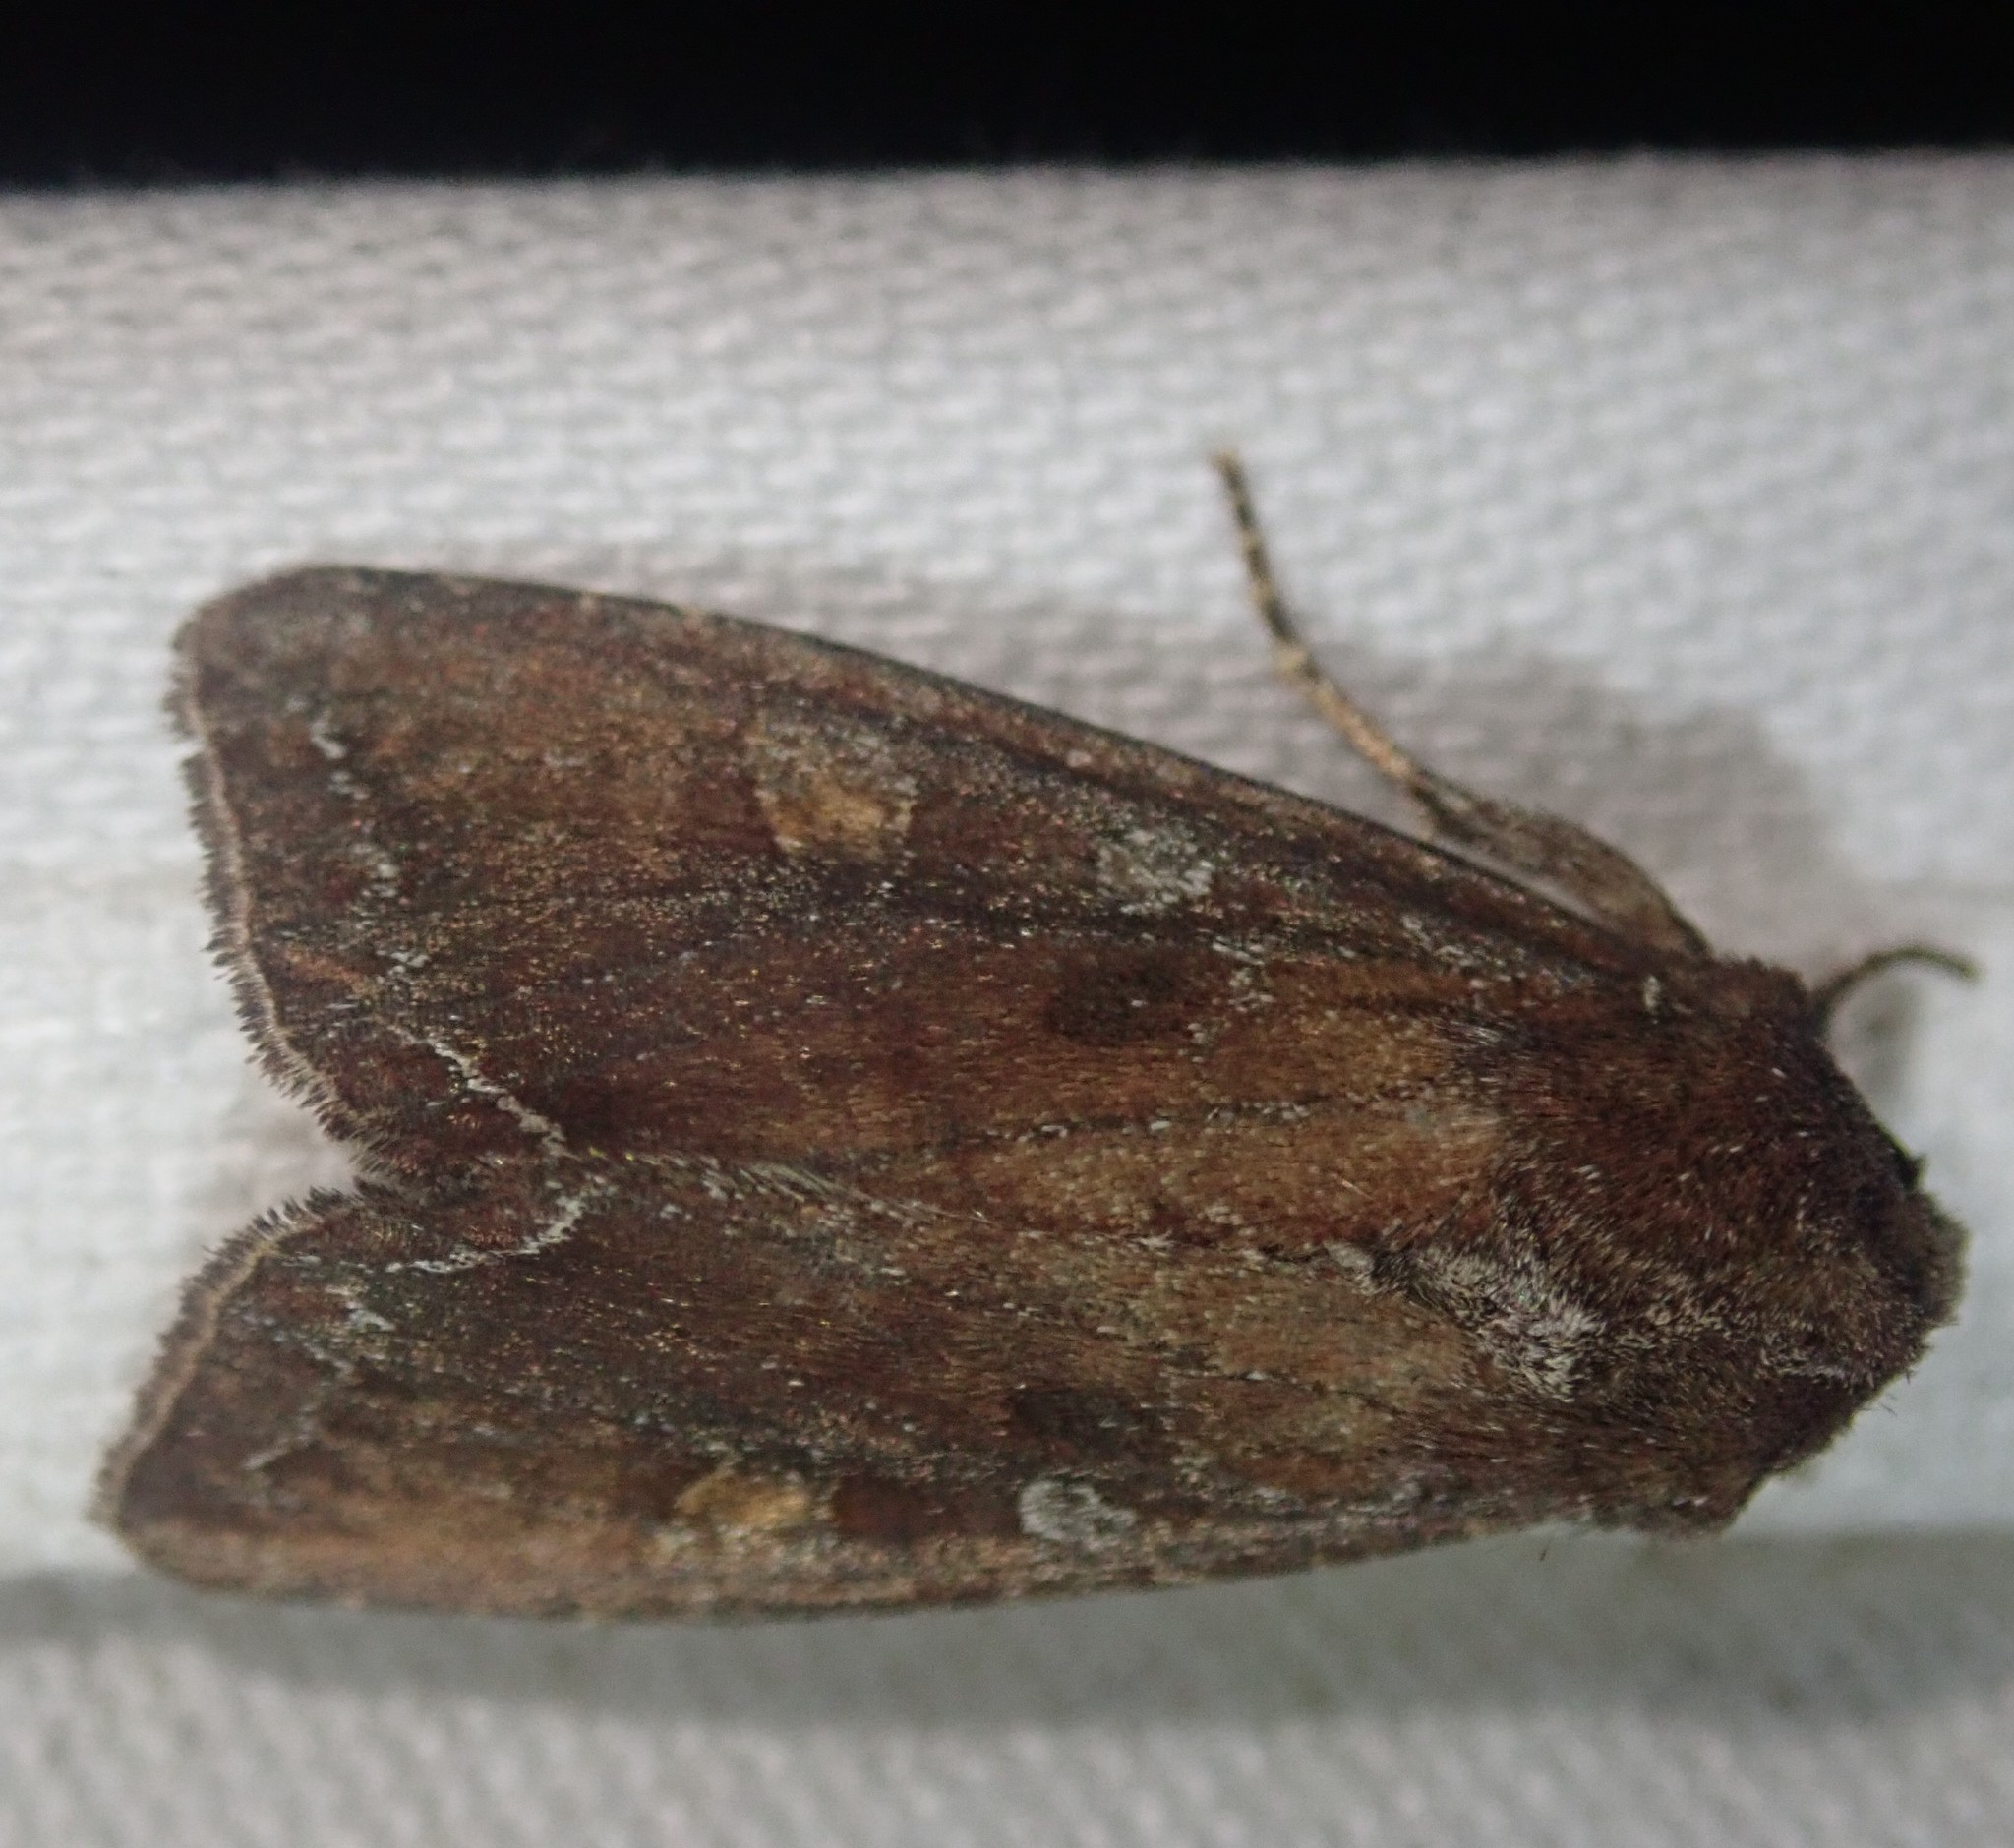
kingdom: Animalia
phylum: Arthropoda
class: Insecta
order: Lepidoptera
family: Noctuidae
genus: Lacanobia
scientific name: Lacanobia oleracea
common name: Bright-line brown-eye
